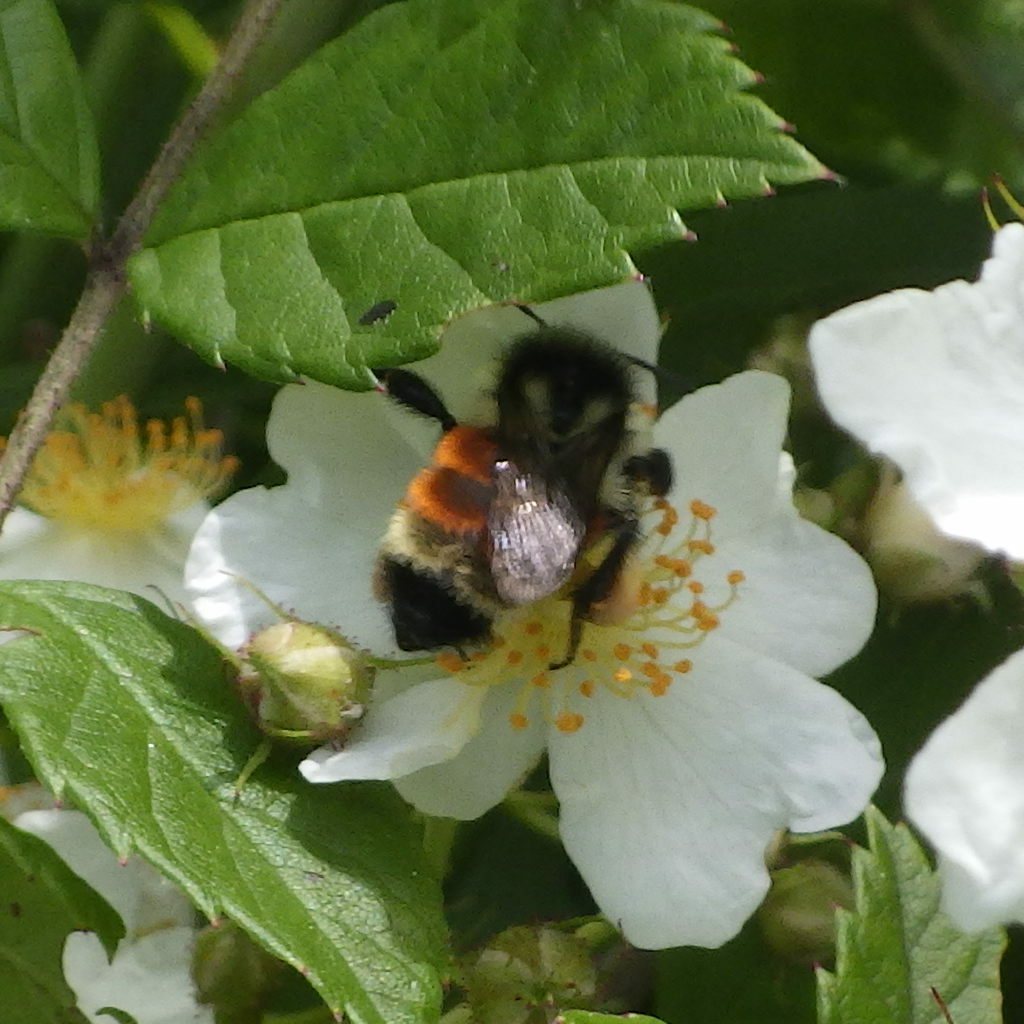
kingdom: Animalia
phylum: Arthropoda
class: Insecta
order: Hymenoptera
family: Apidae
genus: Bombus
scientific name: Bombus ternarius
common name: Tri-colored bumble bee
